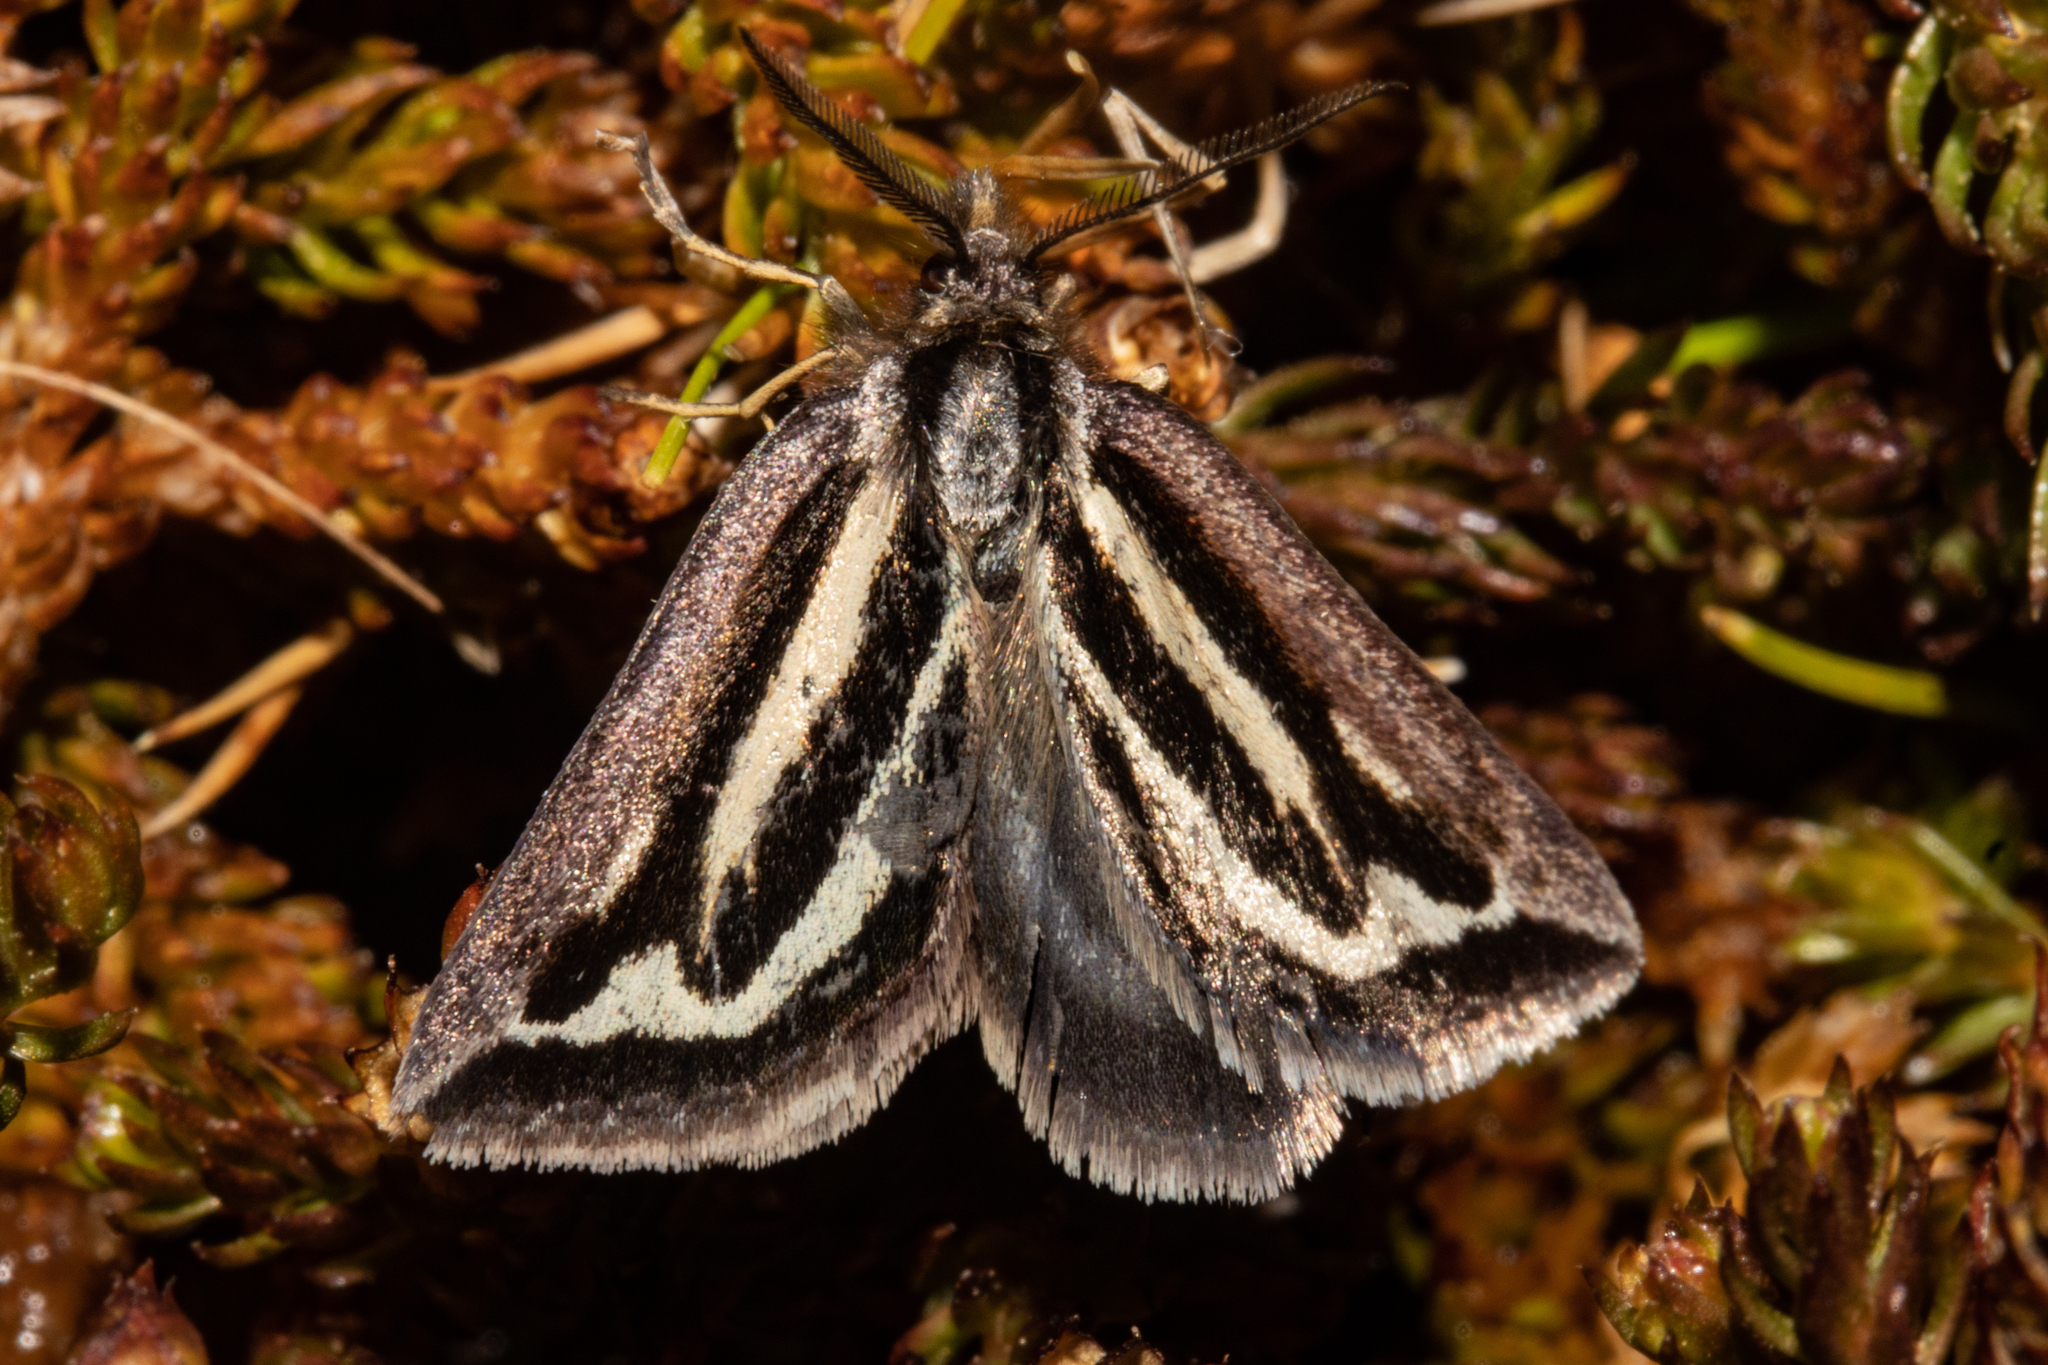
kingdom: Animalia
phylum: Arthropoda
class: Insecta
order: Lepidoptera
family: Geometridae
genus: Aponotoreas
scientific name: Aponotoreas synclinalis
